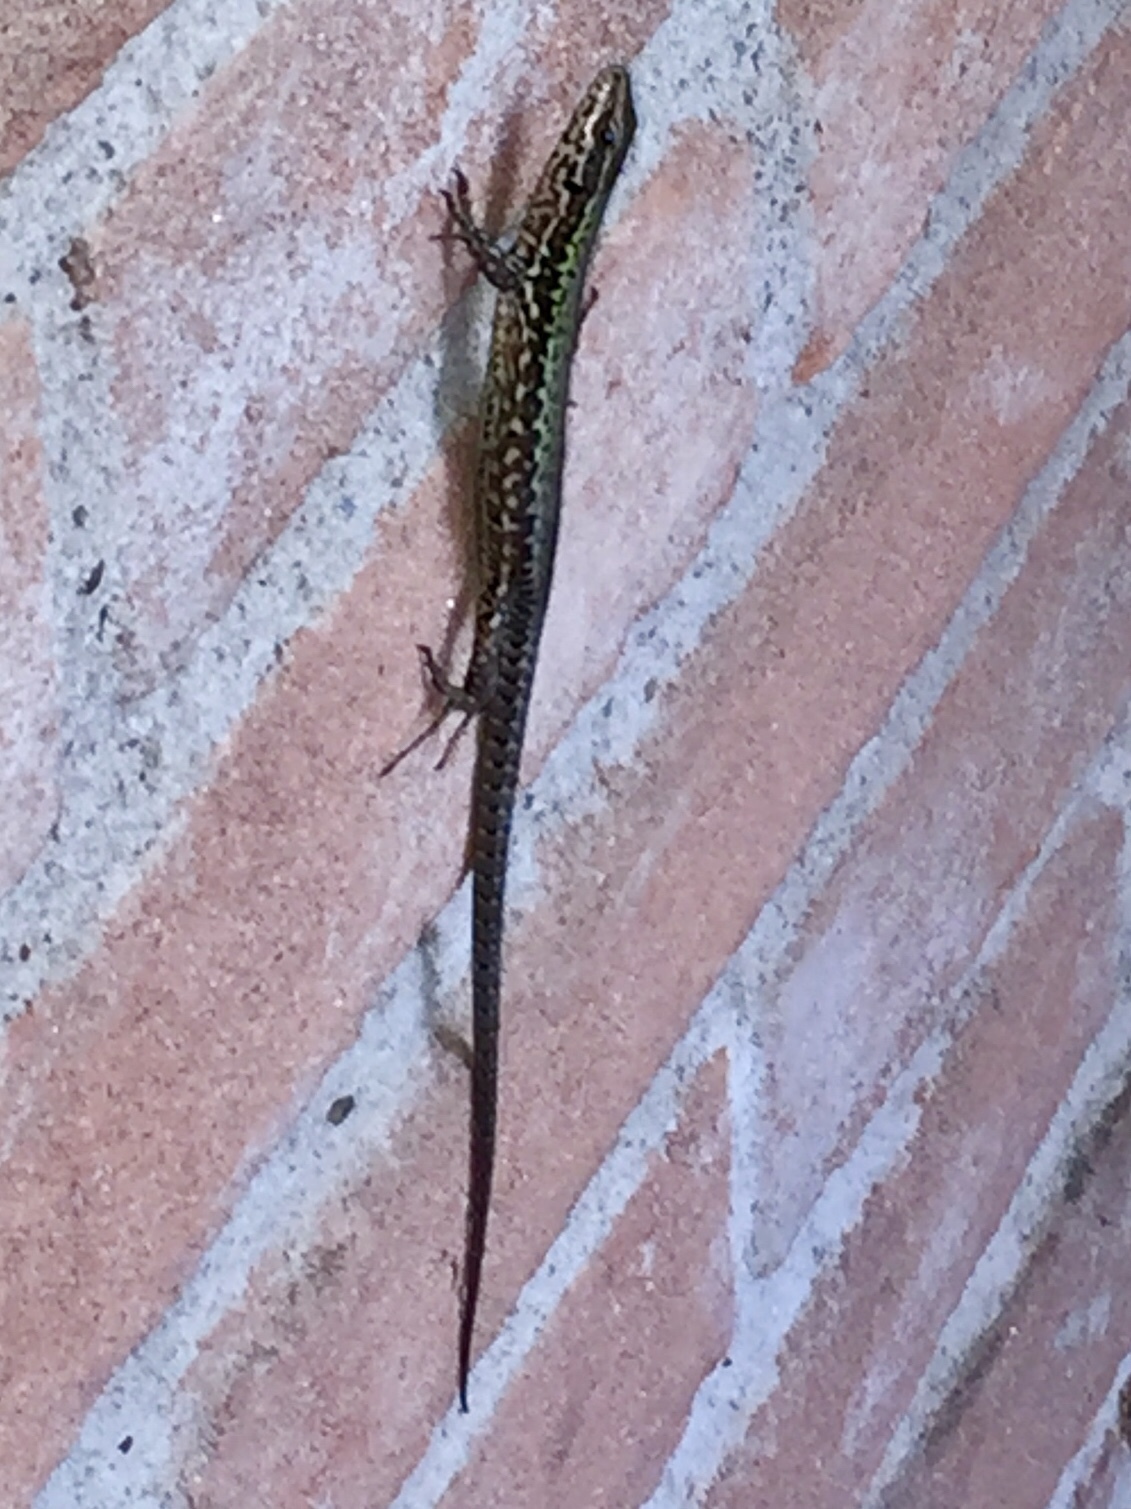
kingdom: Animalia
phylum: Chordata
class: Squamata
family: Lacertidae
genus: Podarcis
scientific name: Podarcis muralis
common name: Common wall lizard
